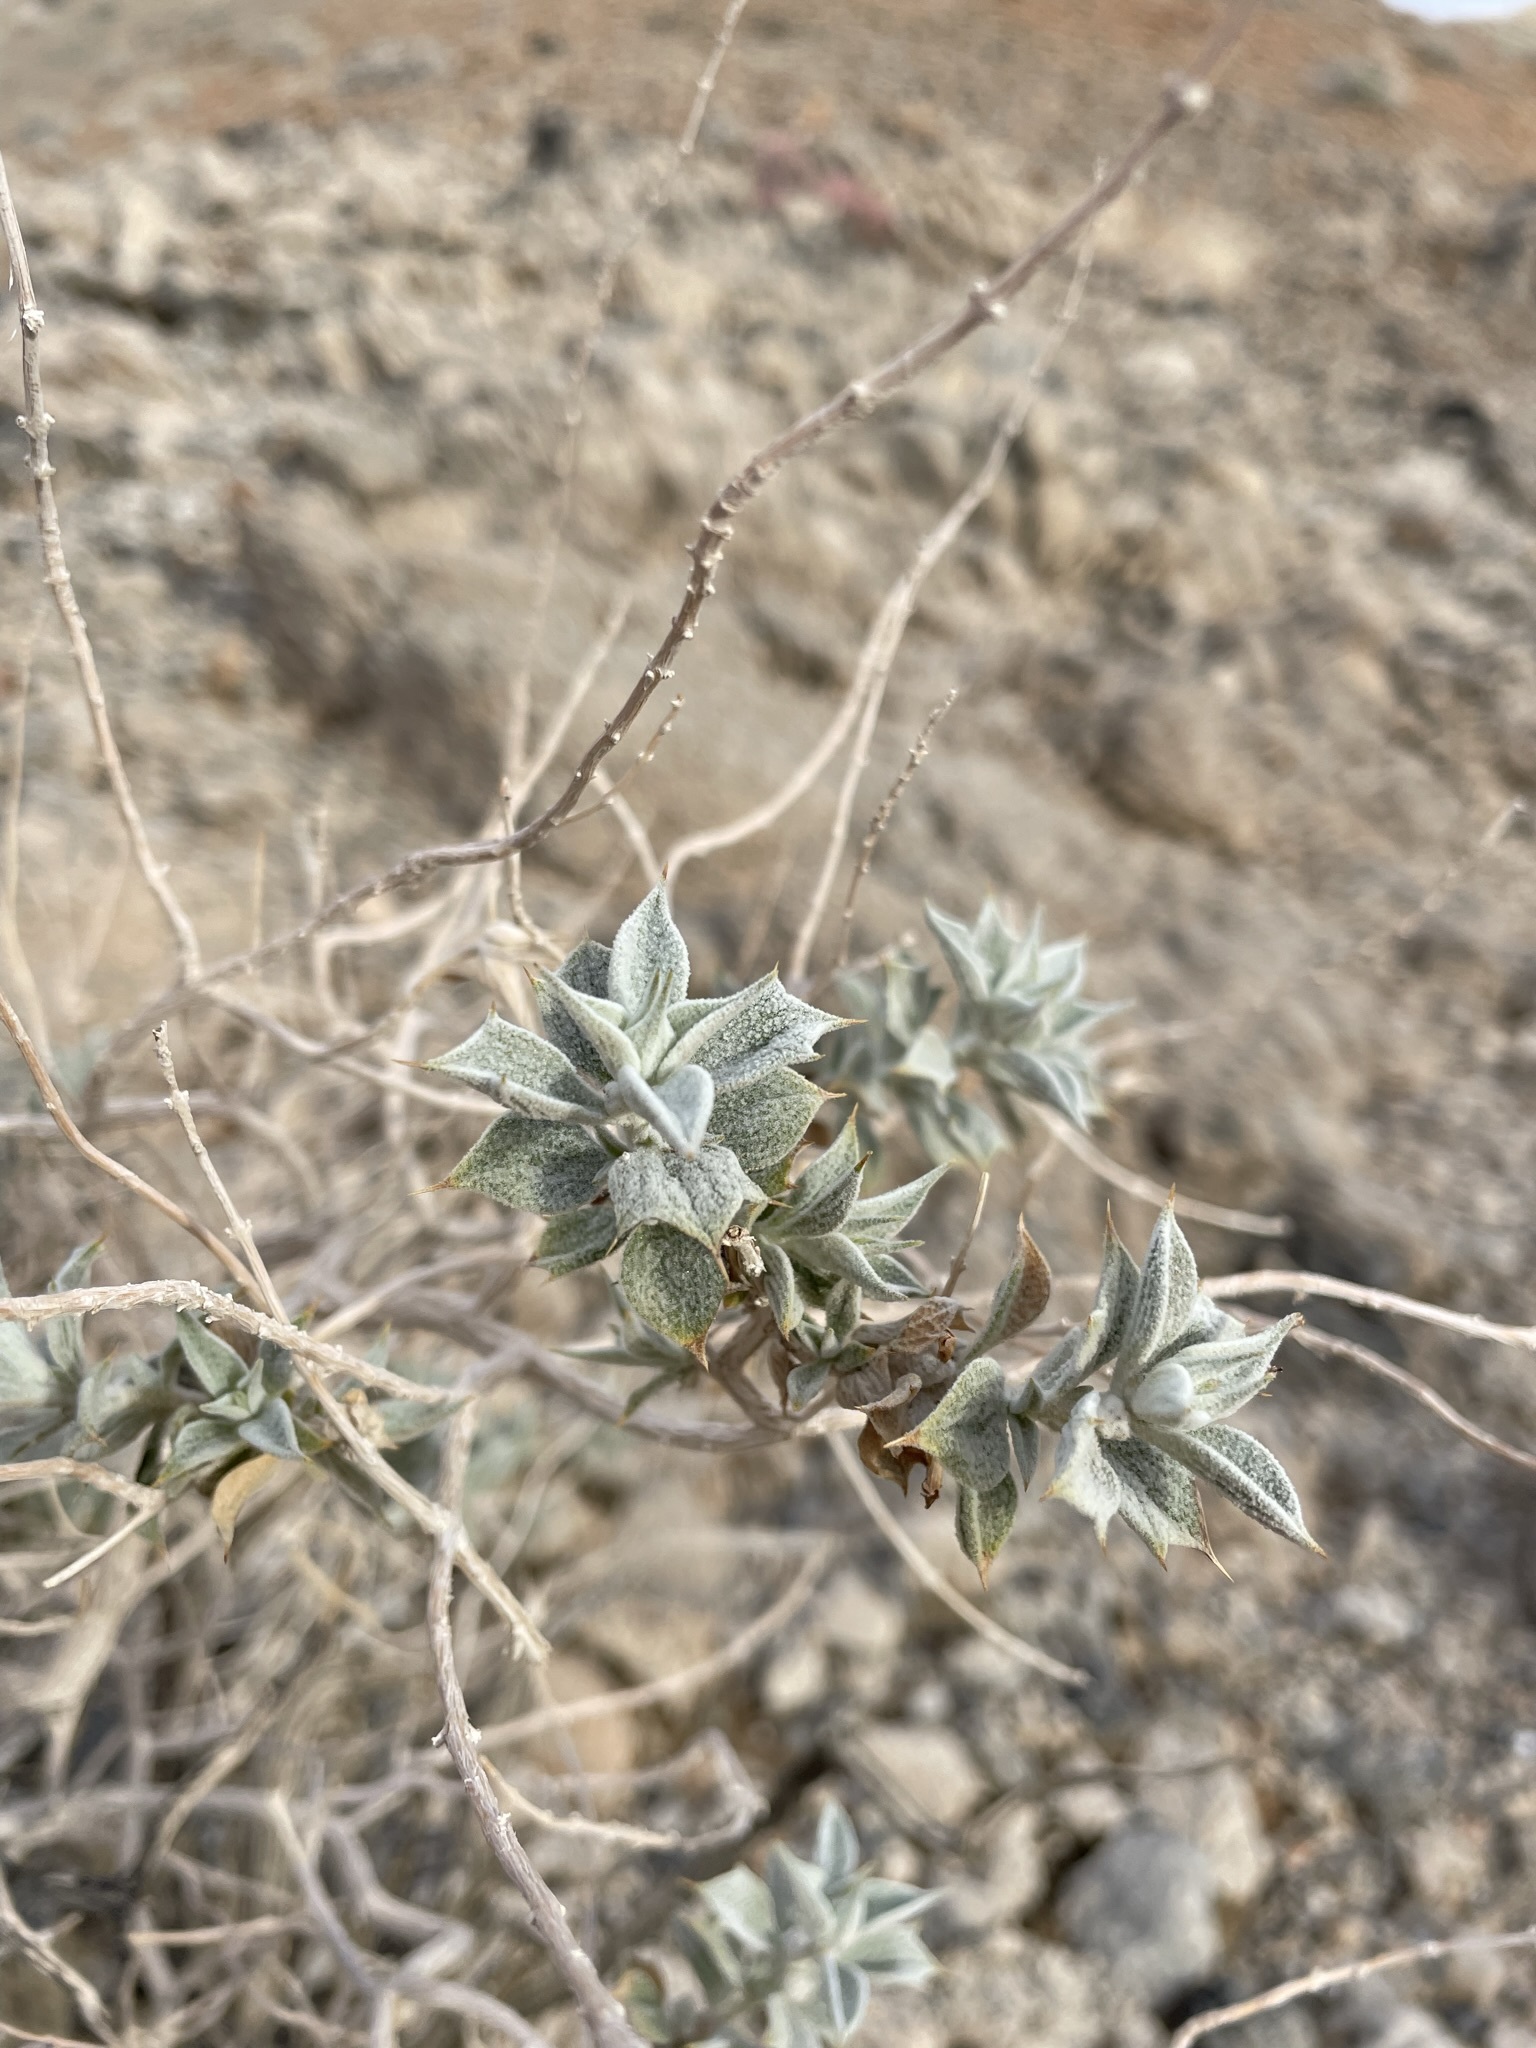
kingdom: Plantae
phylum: Tracheophyta
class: Magnoliopsida
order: Lamiales
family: Lamiaceae
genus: Salvia
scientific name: Salvia funerea
